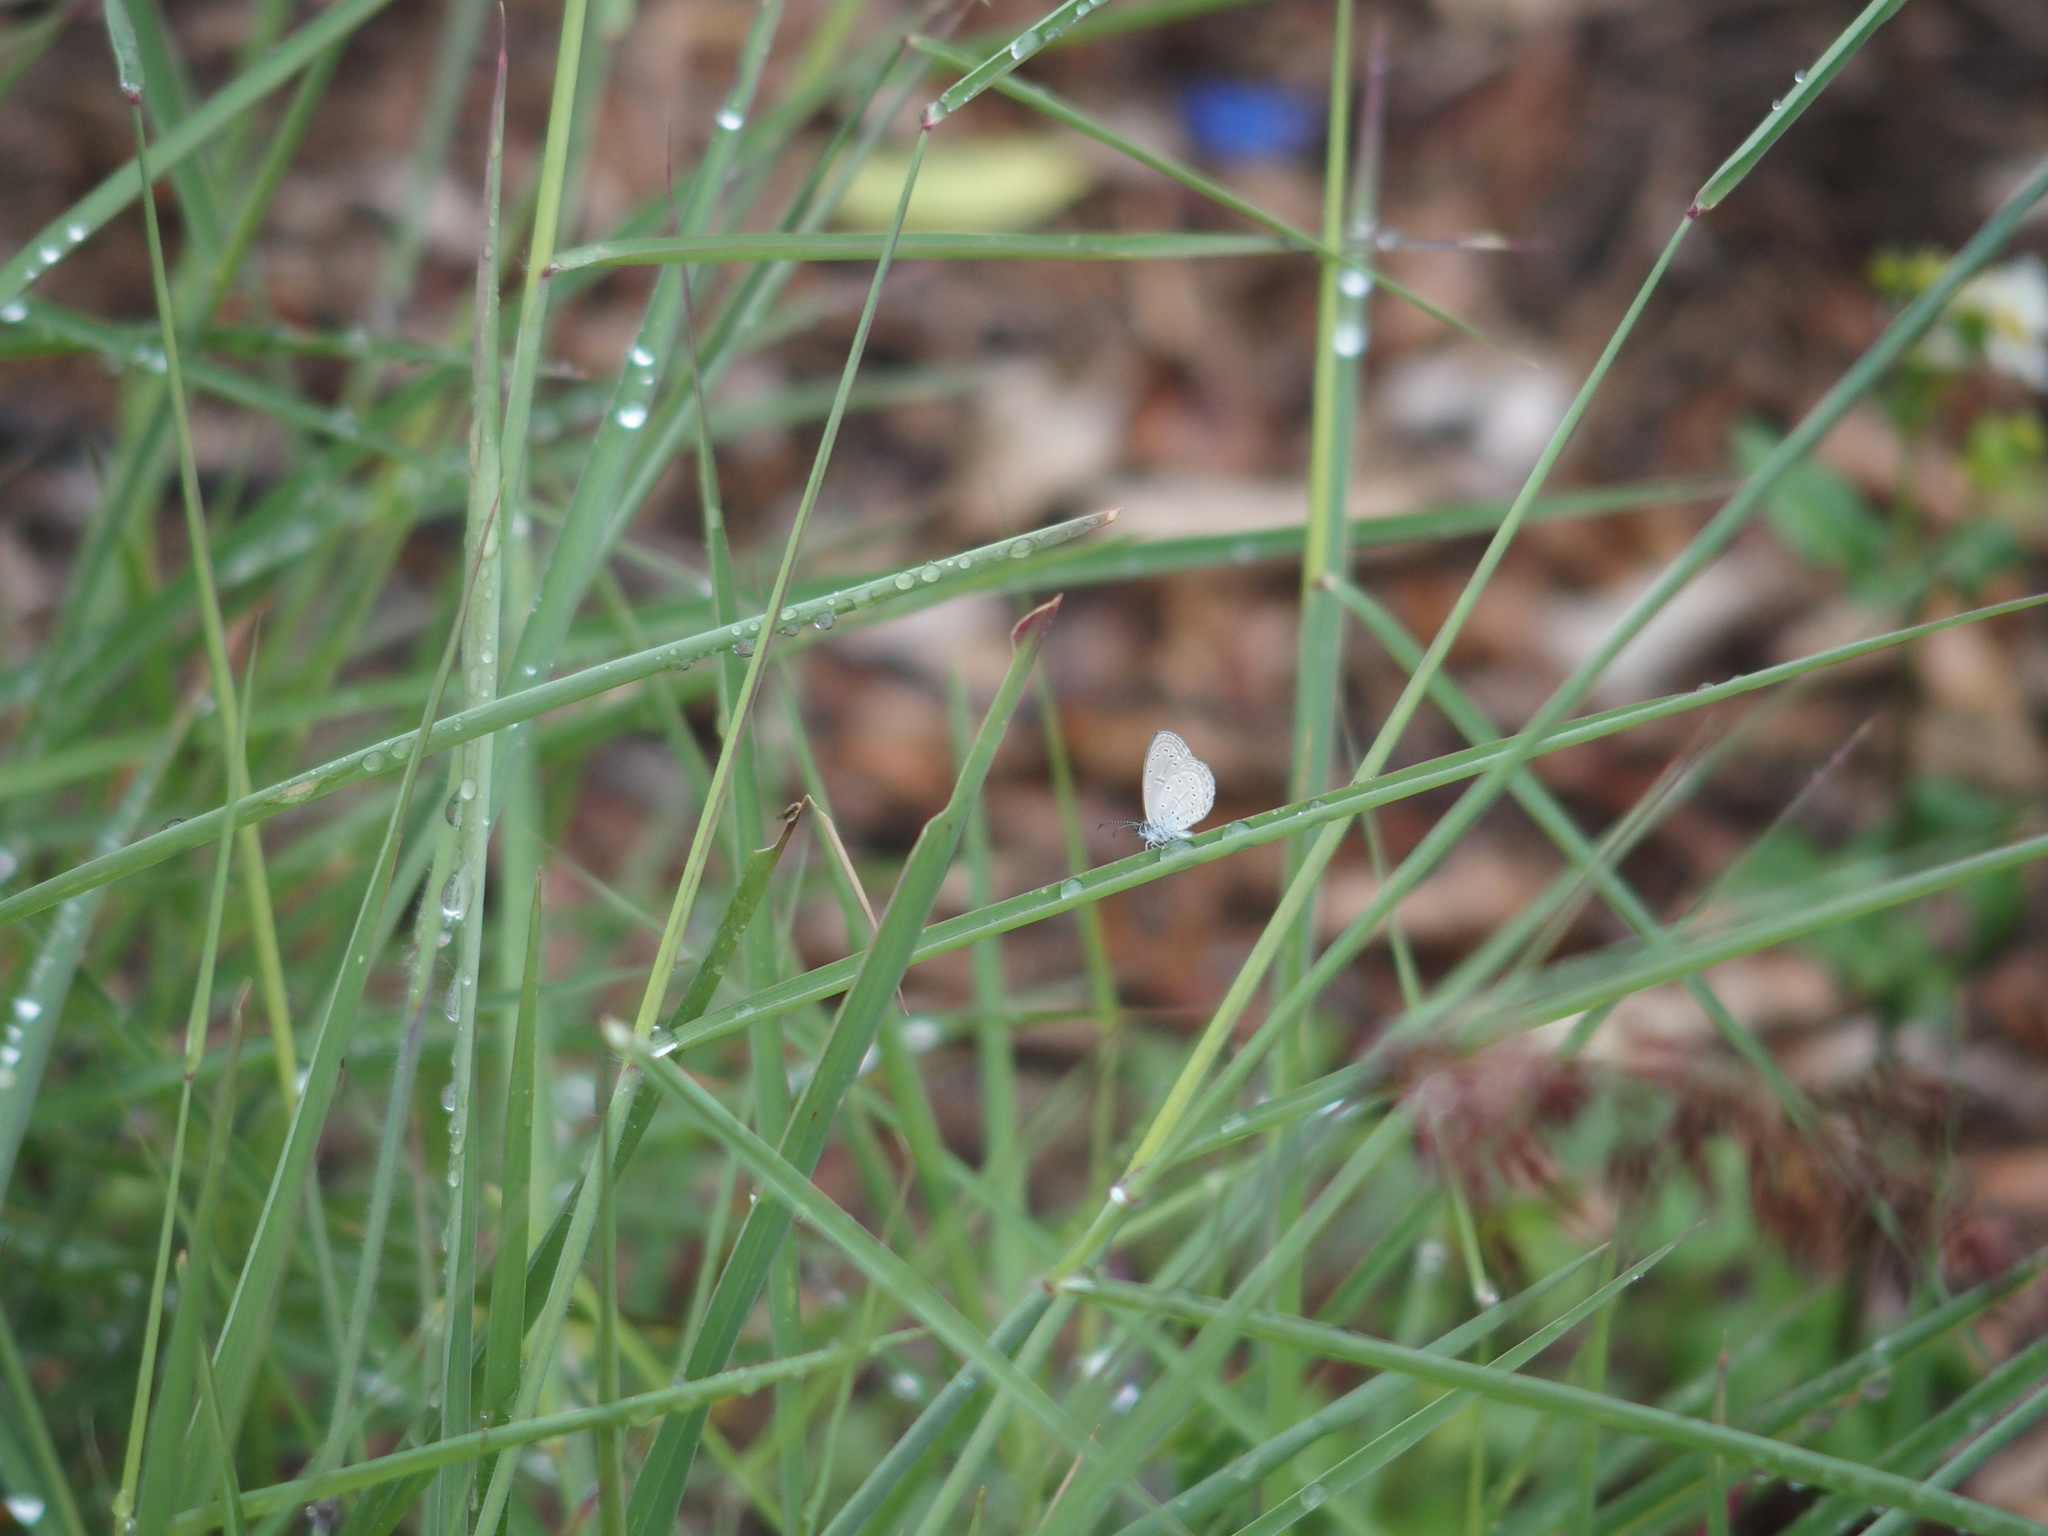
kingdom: Animalia
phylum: Arthropoda
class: Insecta
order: Lepidoptera
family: Lycaenidae
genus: Zizula
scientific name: Zizula hylax
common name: Gaika blue
